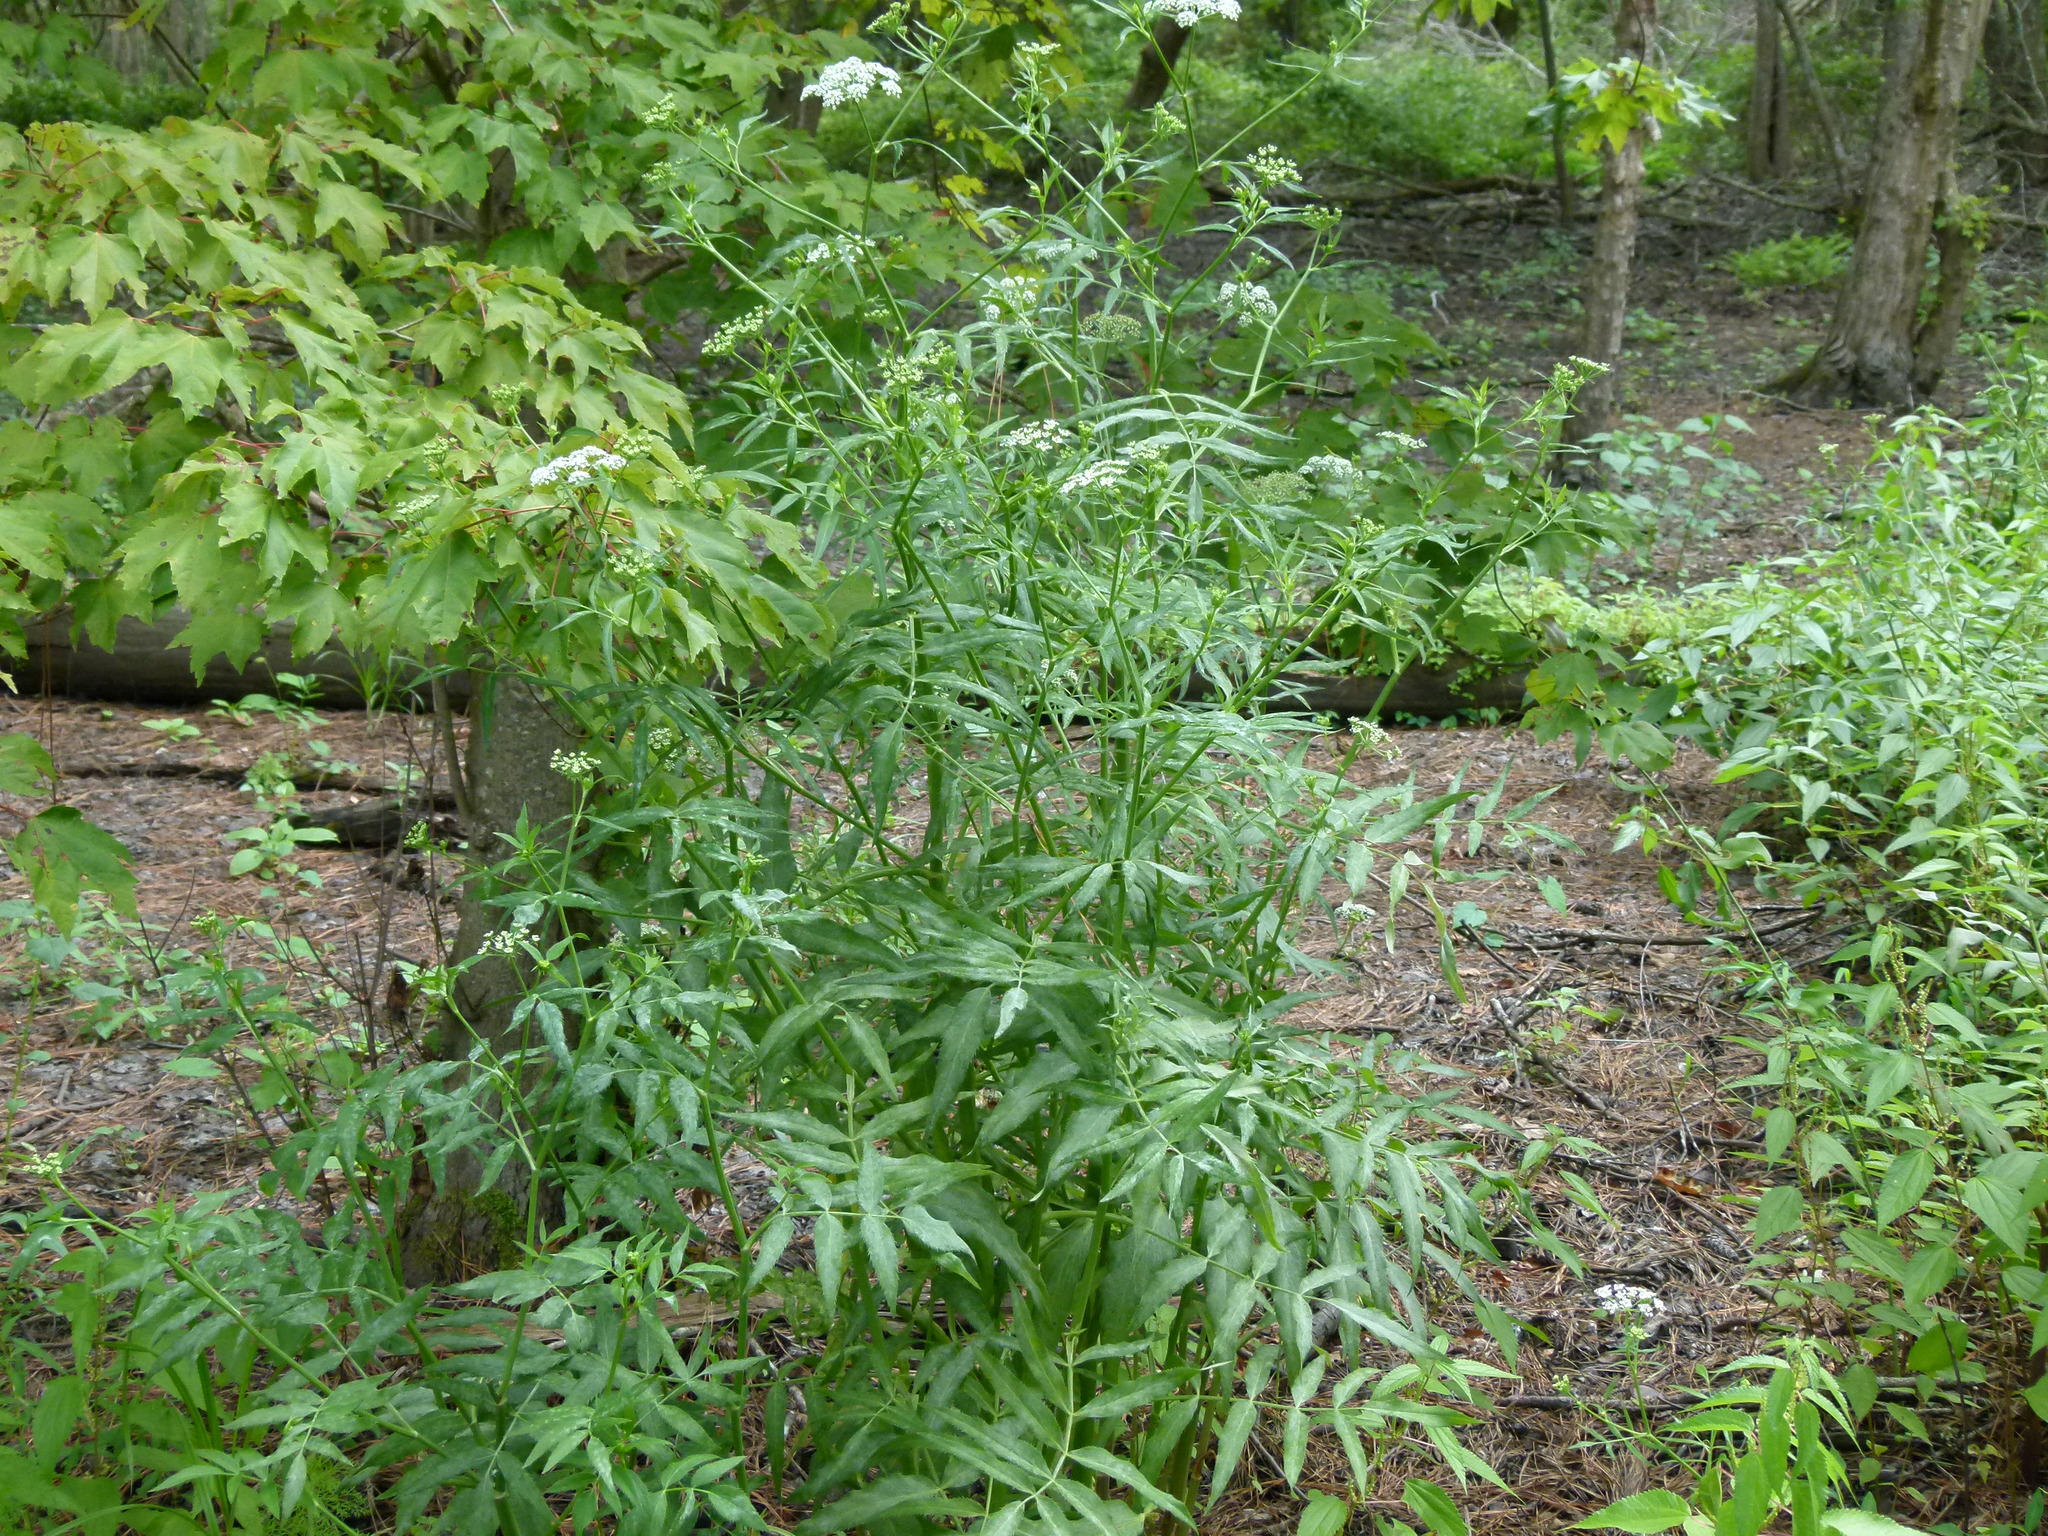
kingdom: Plantae
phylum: Tracheophyta
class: Magnoliopsida
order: Apiales
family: Apiaceae
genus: Sium
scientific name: Sium suave
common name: Hemlock water-parsnip
